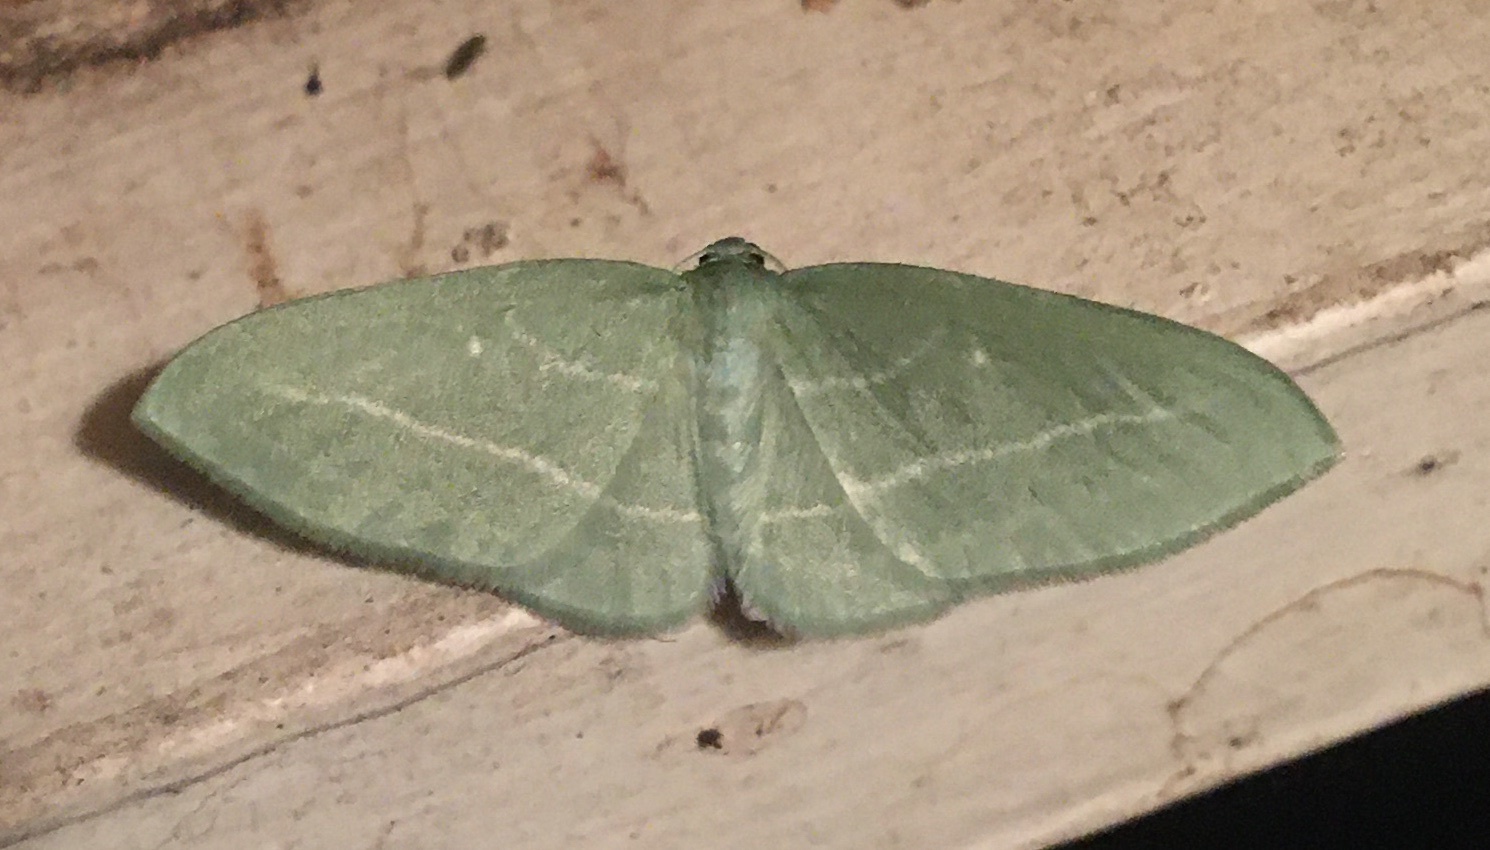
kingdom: Animalia
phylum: Arthropoda
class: Insecta
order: Lepidoptera
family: Geometridae
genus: Dyspteris
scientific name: Dyspteris abortivaria
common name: Bad-wing
